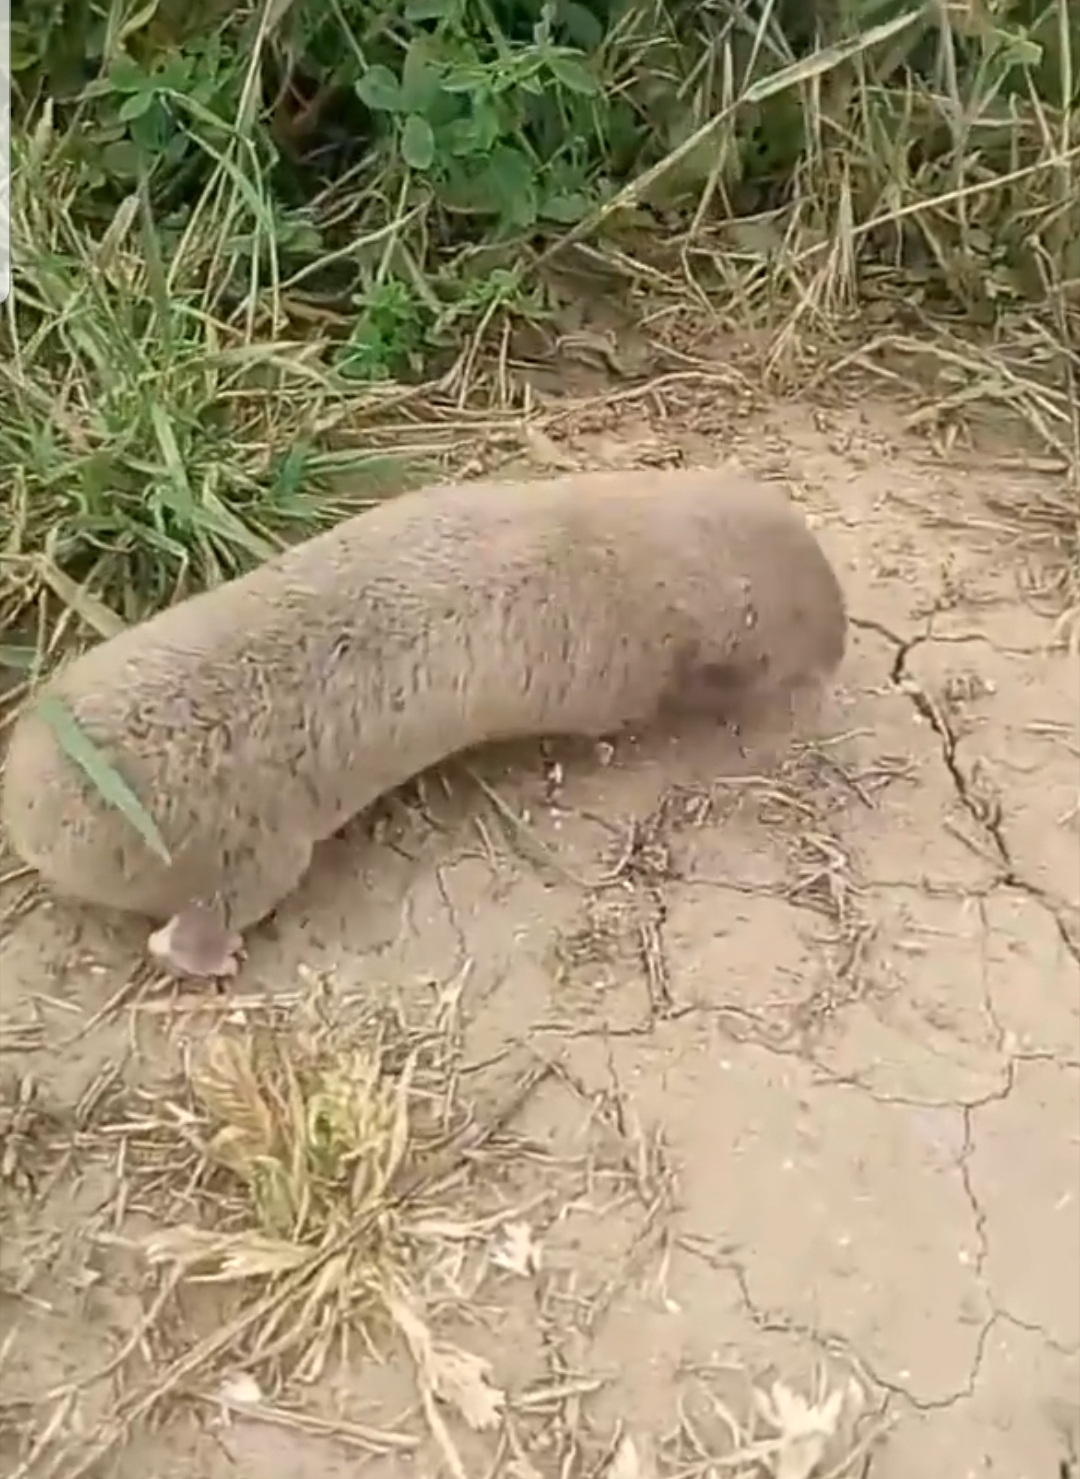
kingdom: Animalia
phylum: Chordata
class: Mammalia
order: Rodentia
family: Spalacidae
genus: Spalax
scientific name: Spalax microphthalmus
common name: Greater mole rat
